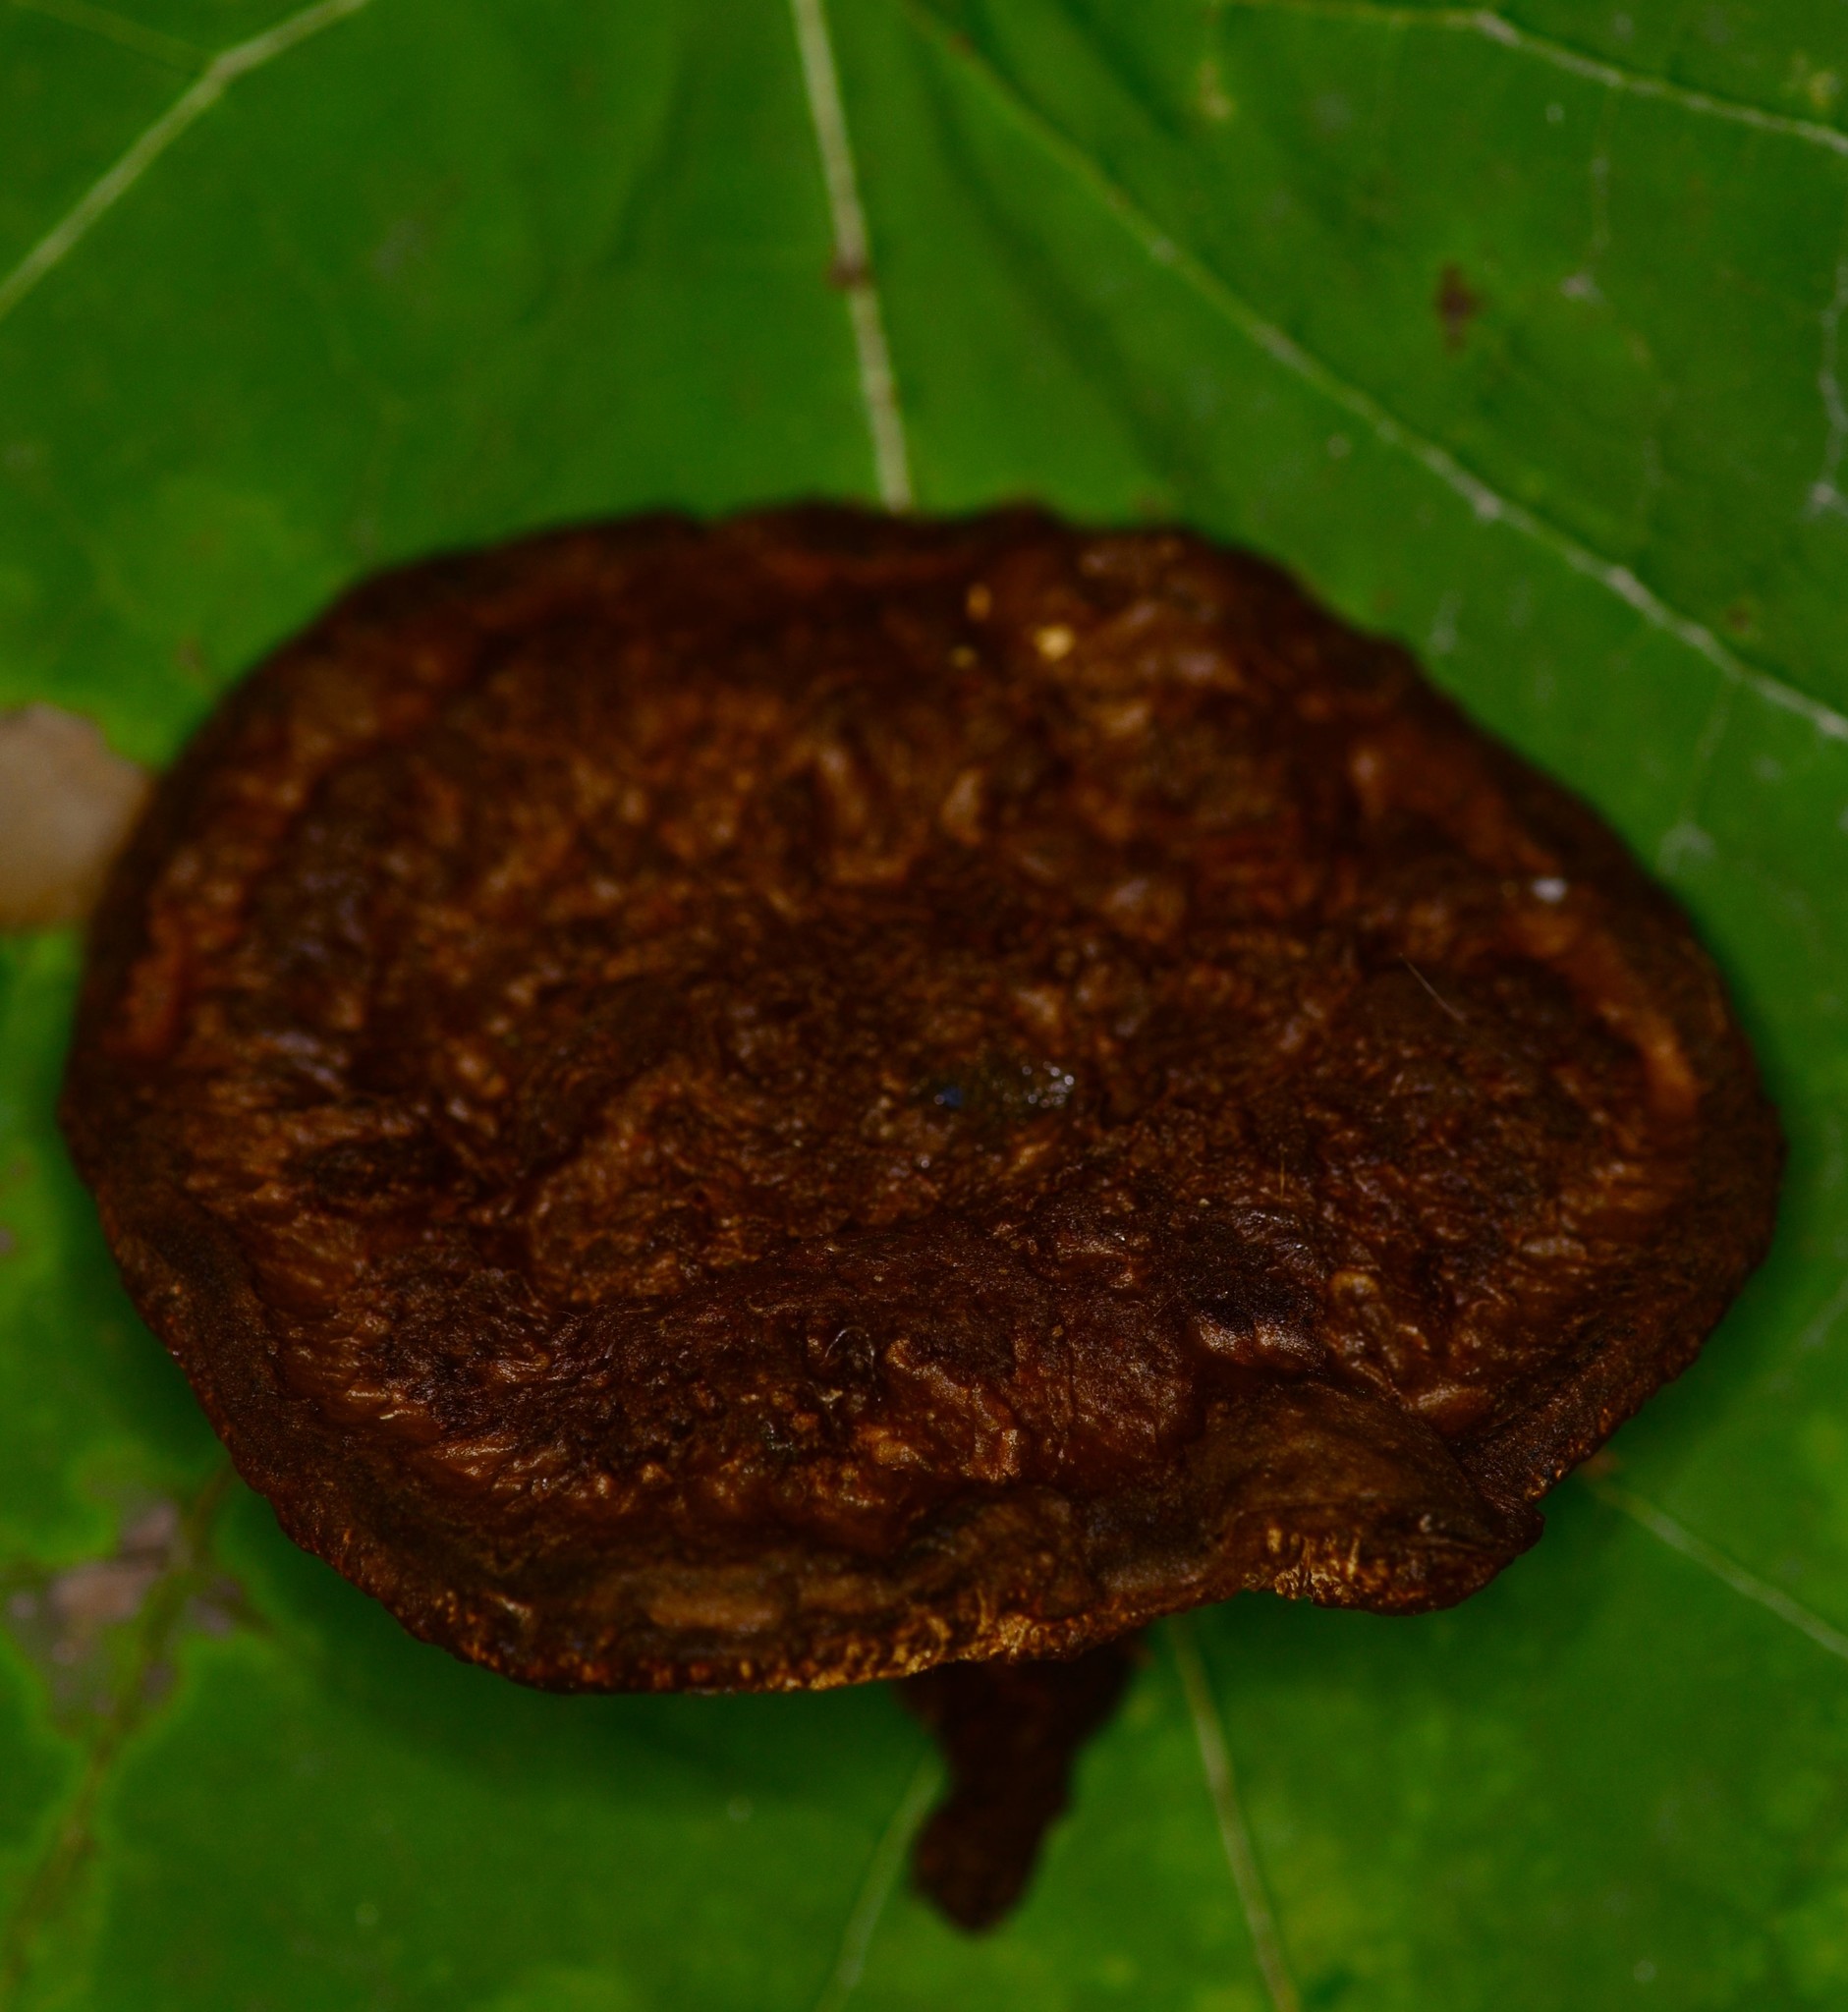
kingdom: Fungi
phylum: Basidiomycota
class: Agaricomycetes
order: Hymenochaetales
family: Hymenochaetaceae
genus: Coltricia
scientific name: Coltricia montagnei
